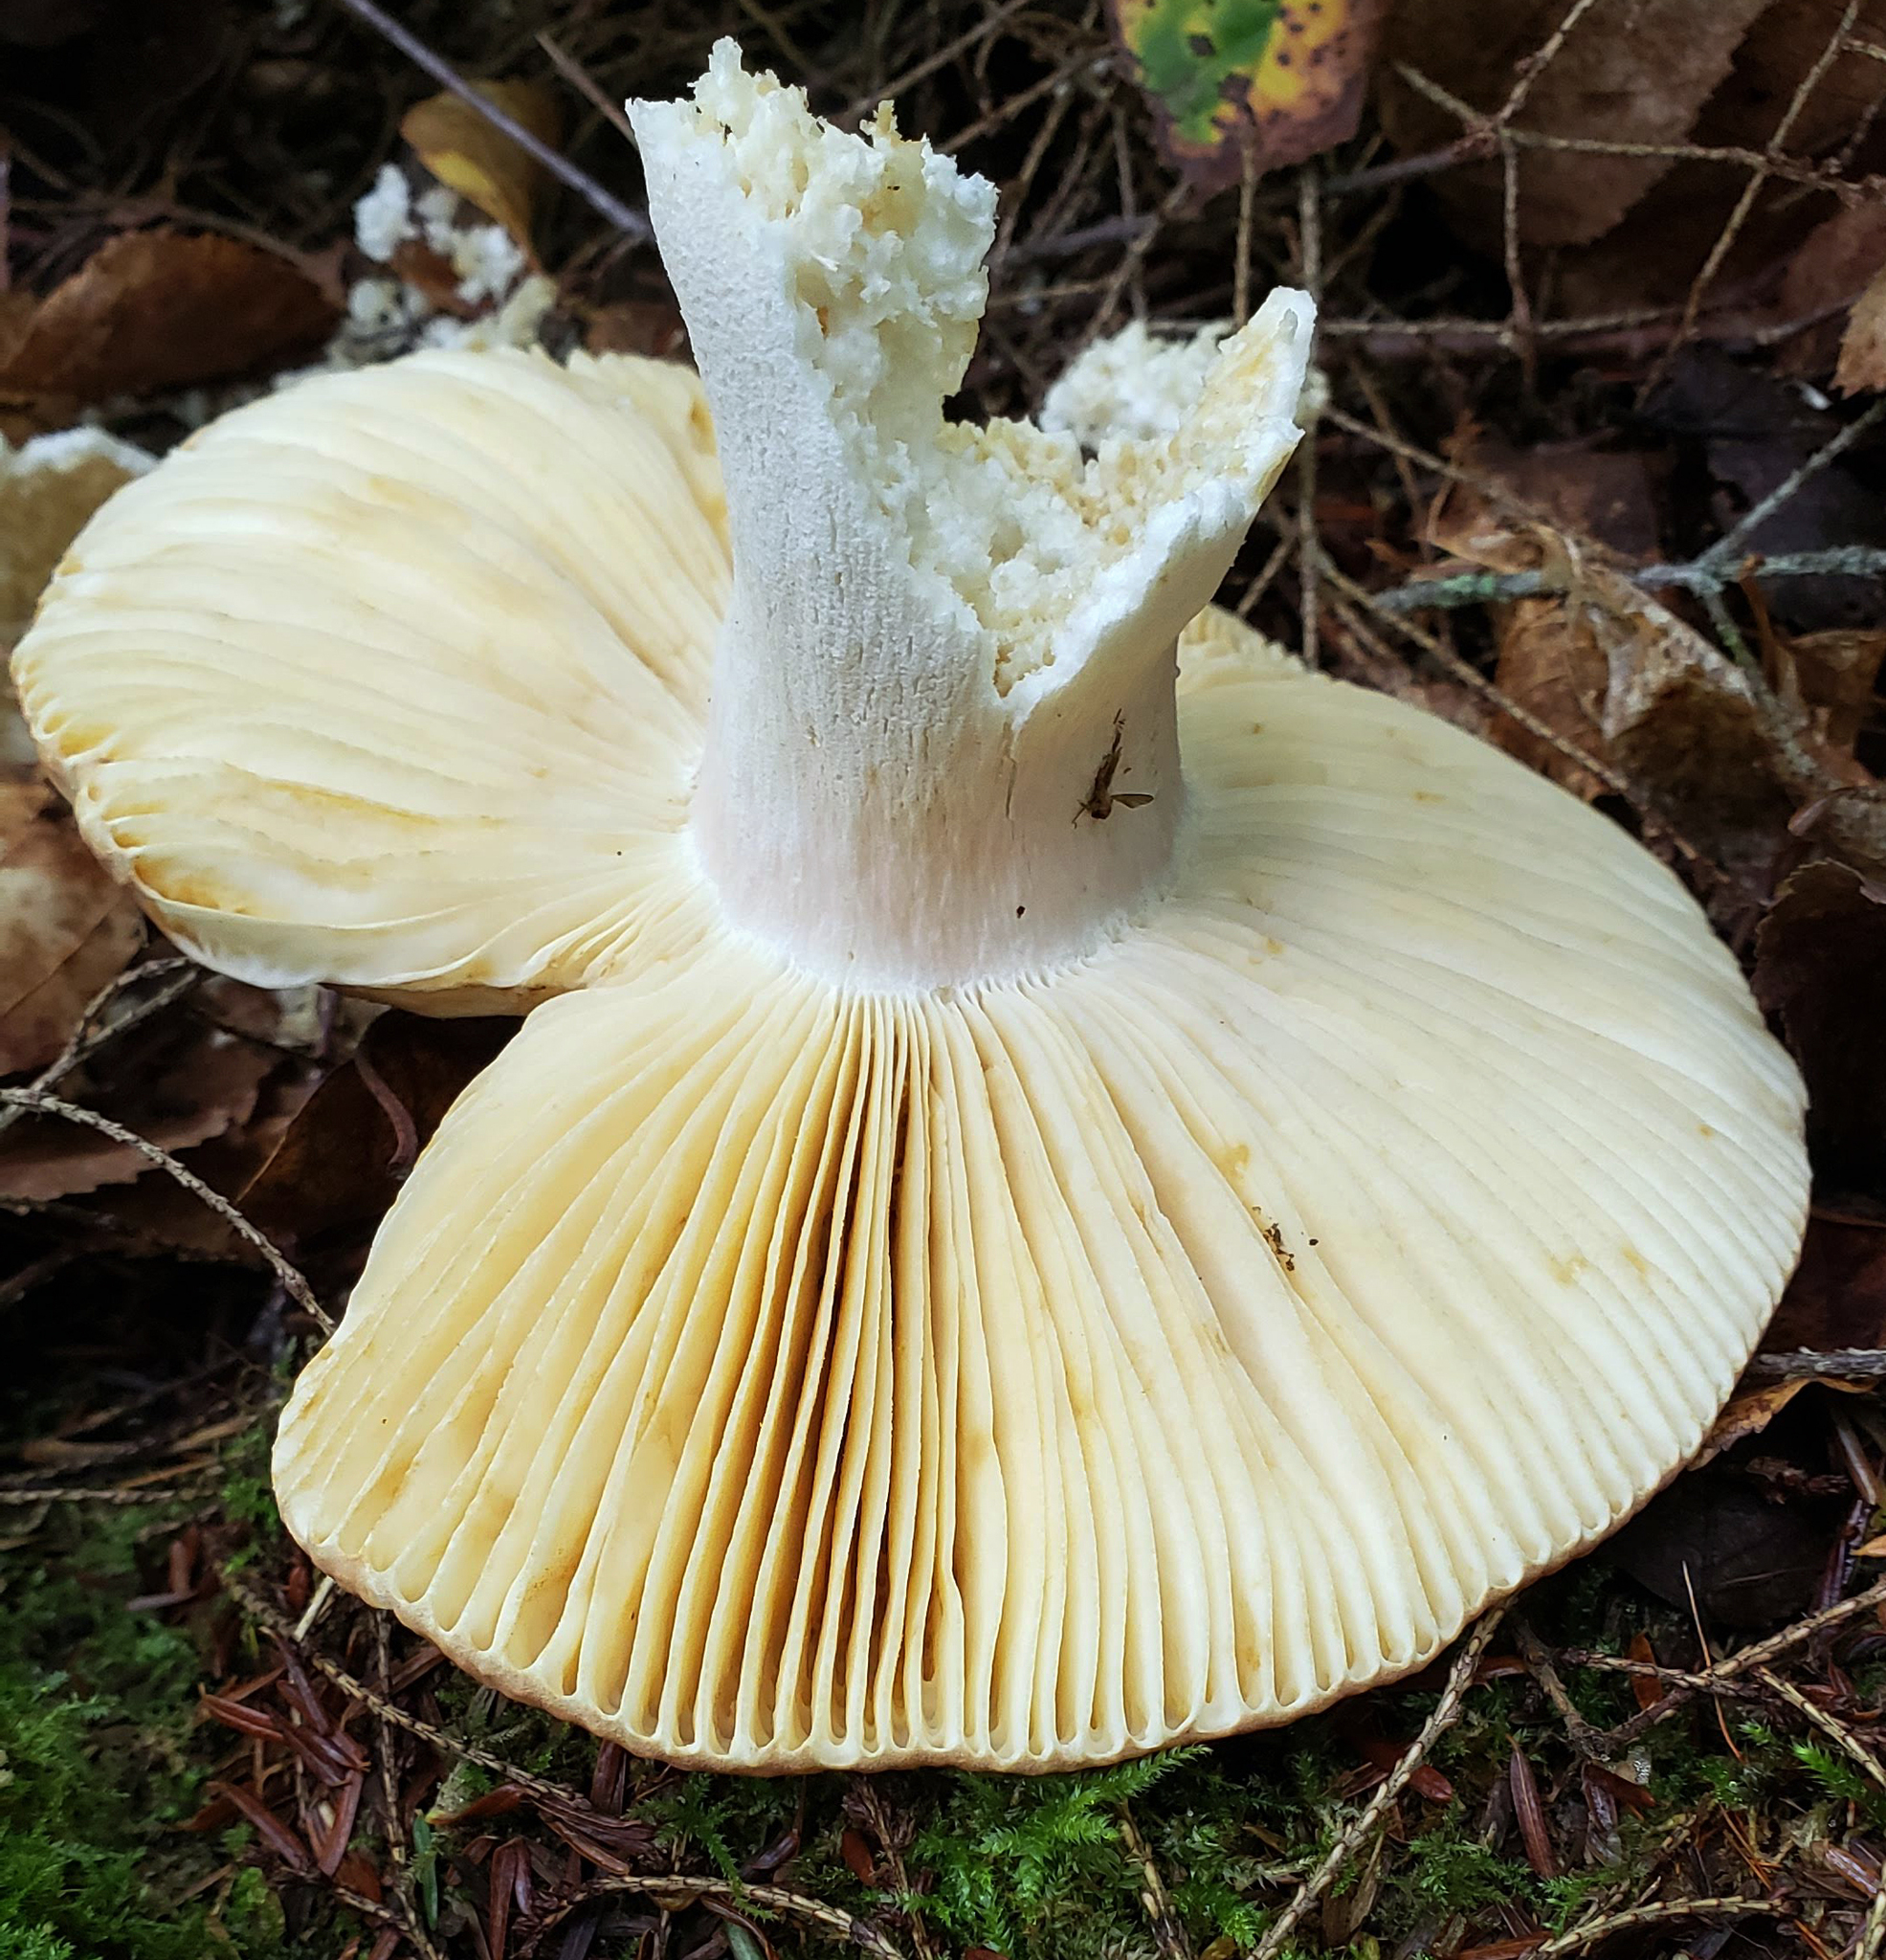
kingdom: Fungi
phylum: Basidiomycota
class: Agaricomycetes
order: Russulales
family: Russulaceae
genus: Russula
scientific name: Russula
